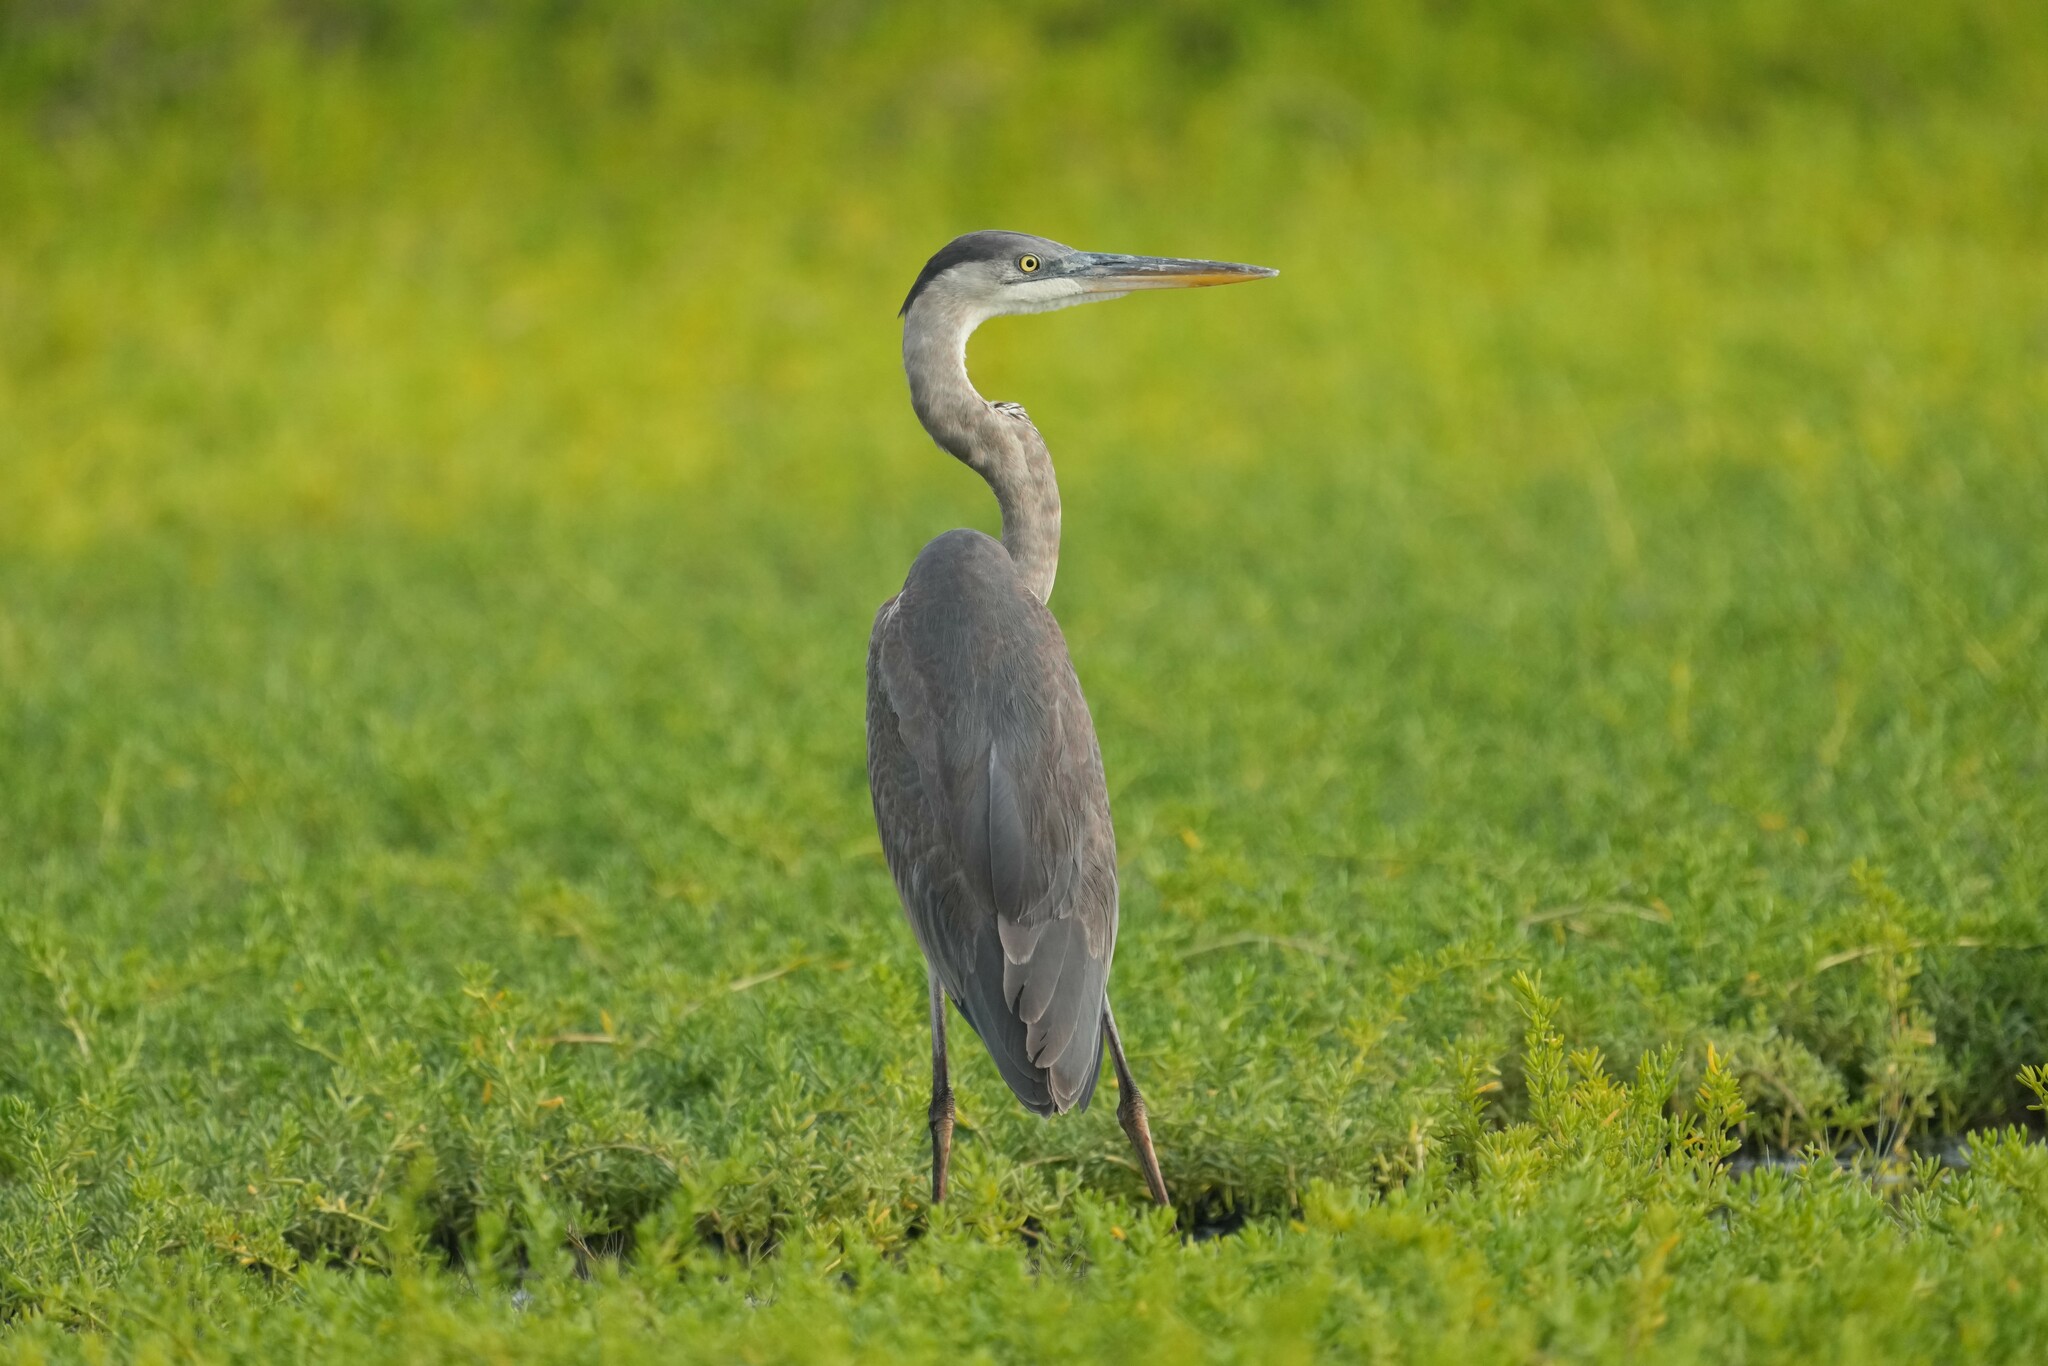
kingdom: Animalia
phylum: Chordata
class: Aves
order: Pelecaniformes
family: Ardeidae
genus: Ardea
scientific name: Ardea herodias
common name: Great blue heron
